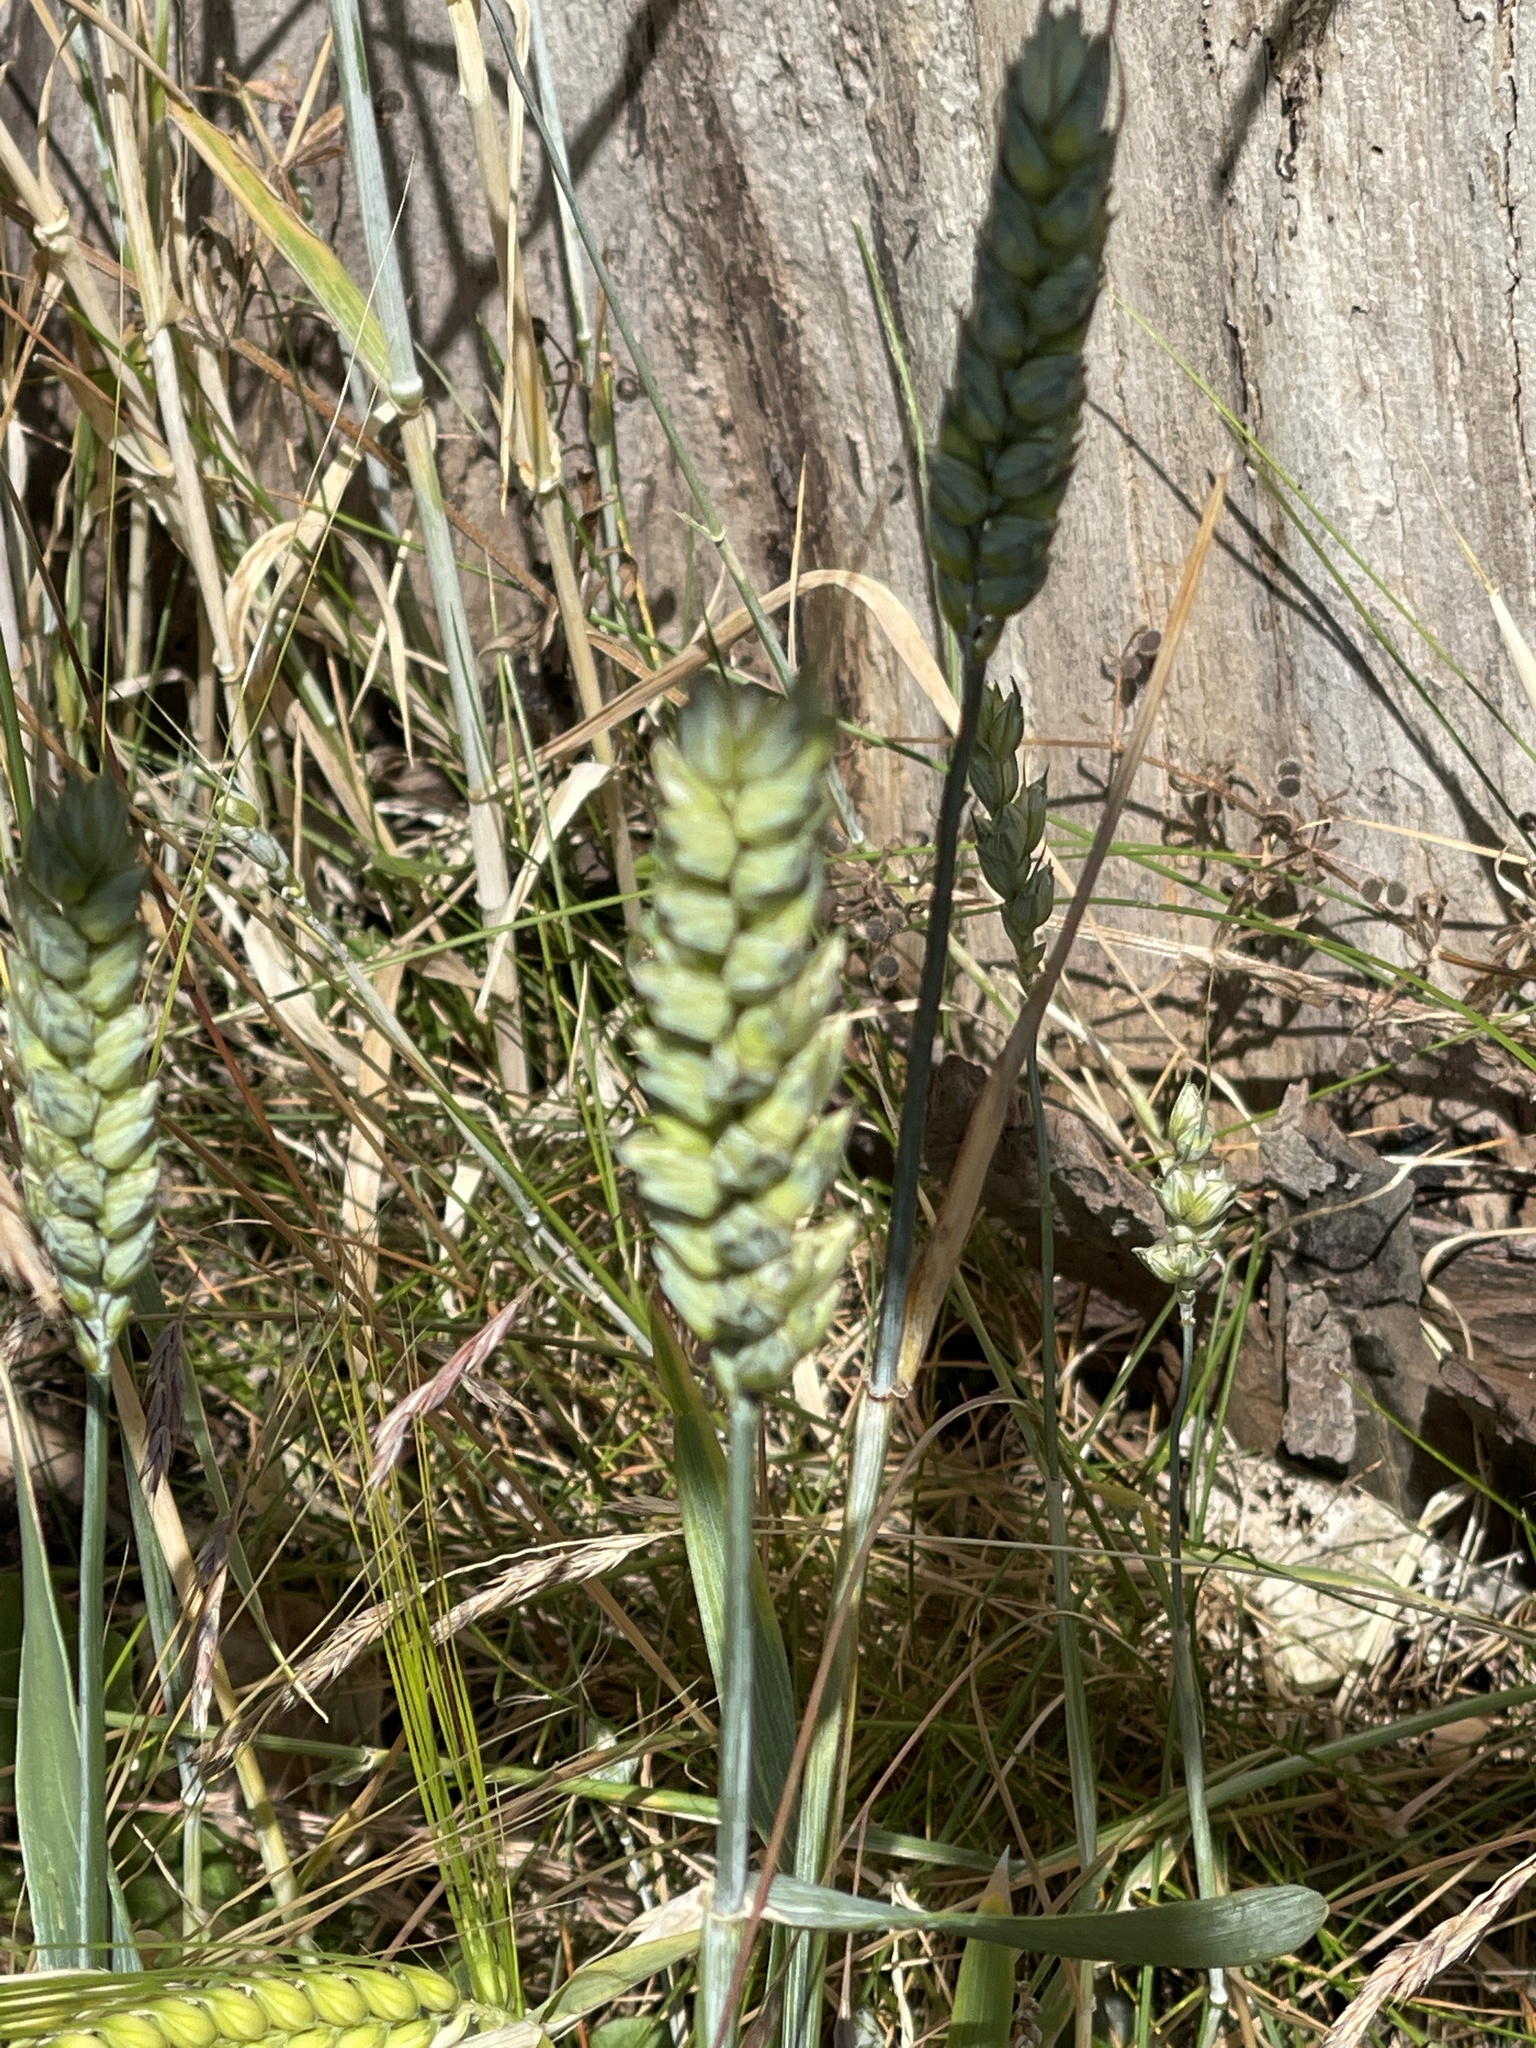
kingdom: Plantae
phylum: Tracheophyta
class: Liliopsida
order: Poales
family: Poaceae
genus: Triticum
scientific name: Triticum aestivum
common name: Common wheat
